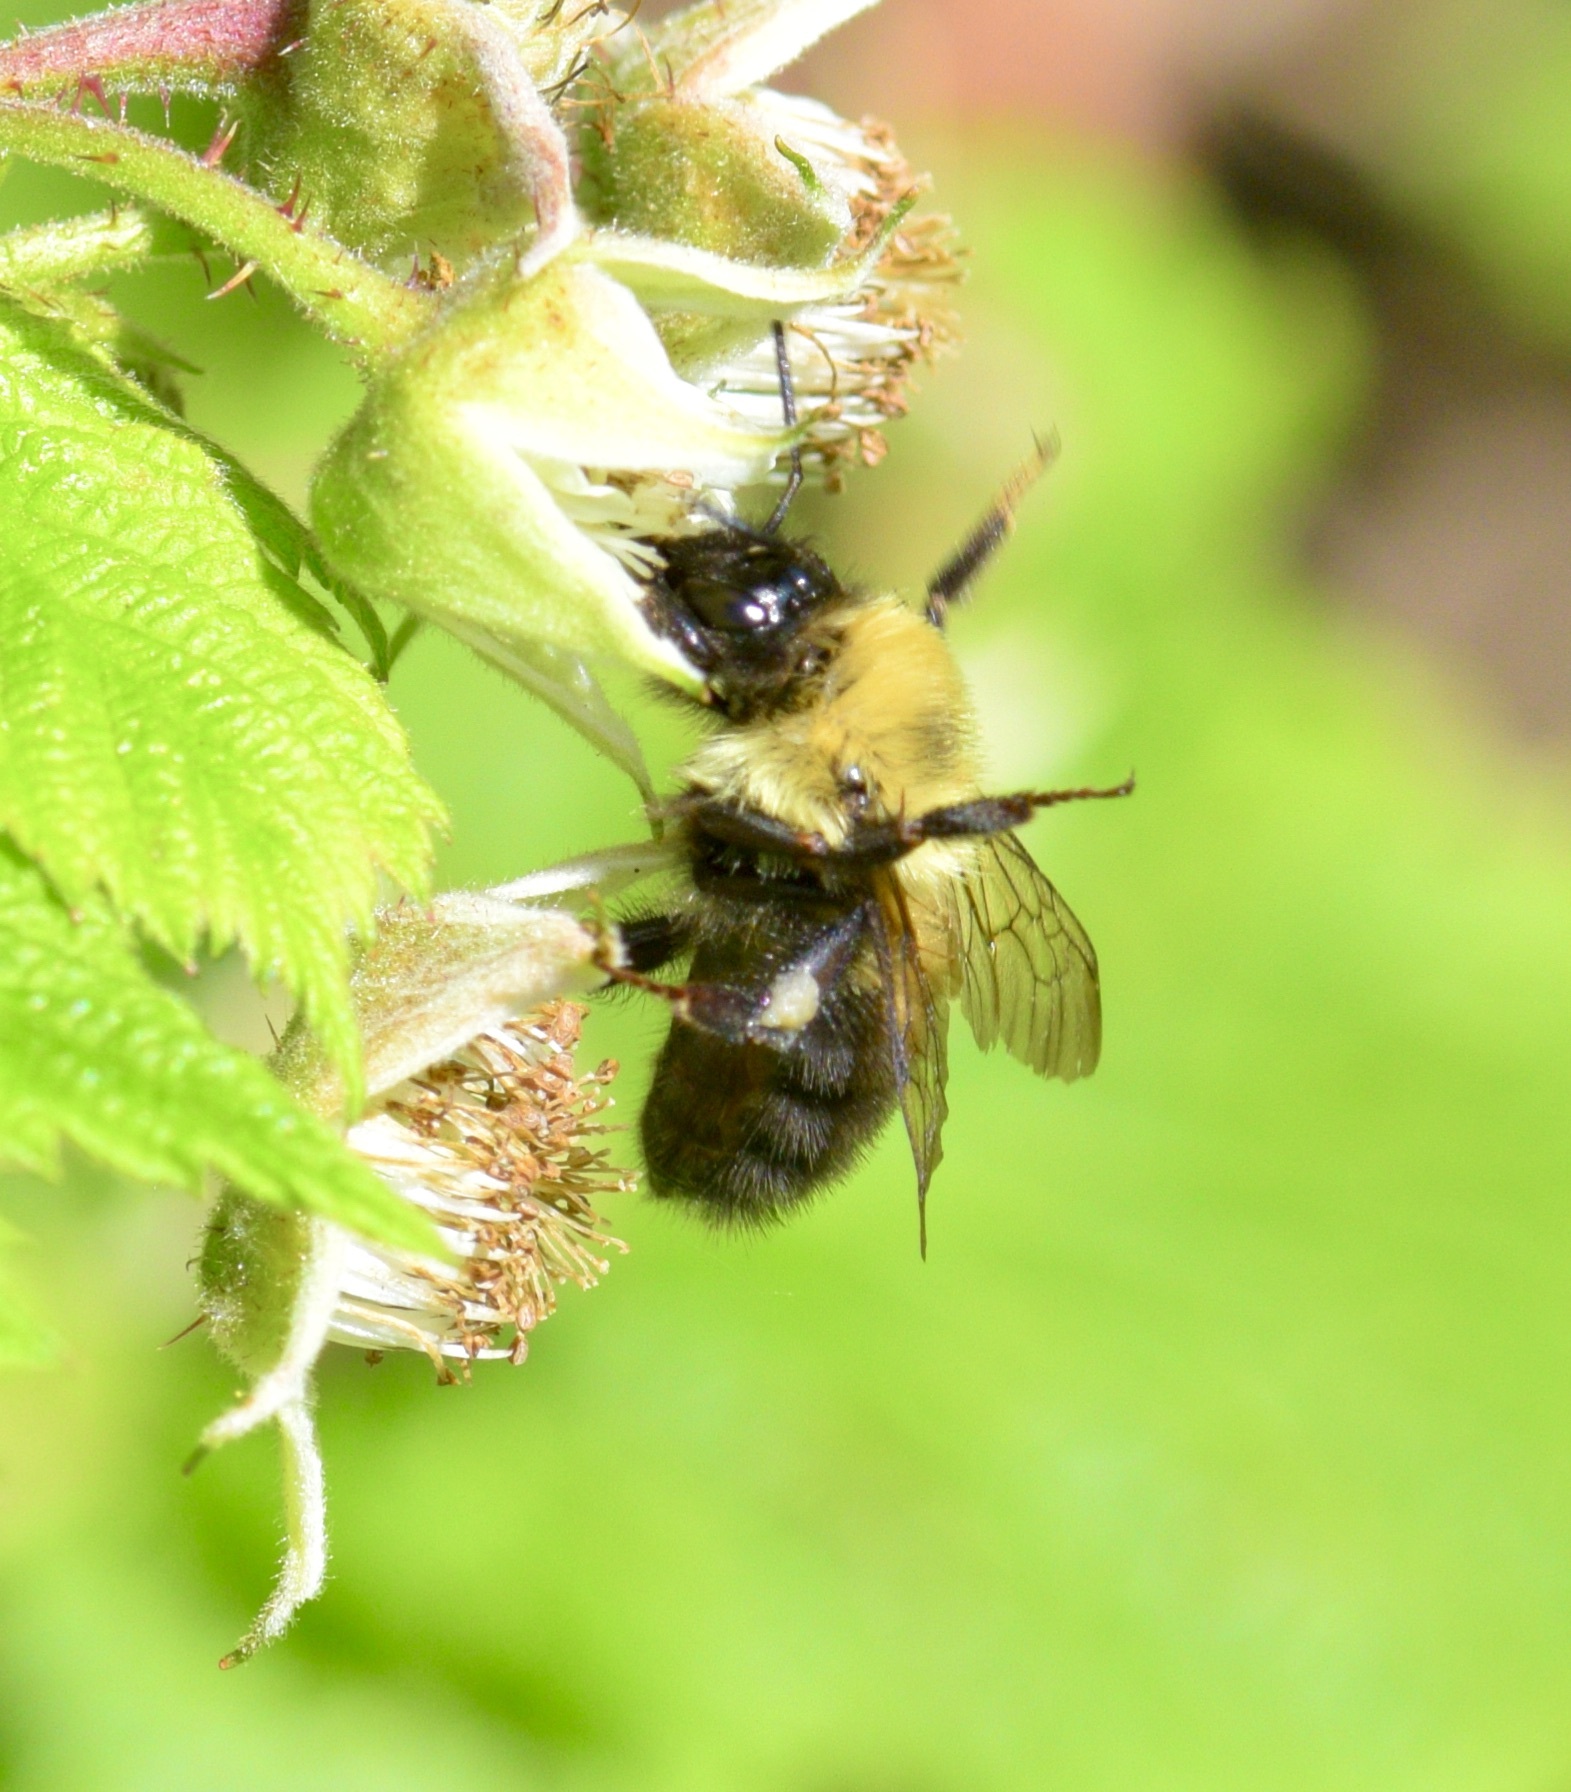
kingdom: Animalia
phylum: Arthropoda
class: Insecta
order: Hymenoptera
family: Apidae
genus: Bombus
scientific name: Bombus bimaculatus
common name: Two-spotted bumble bee
